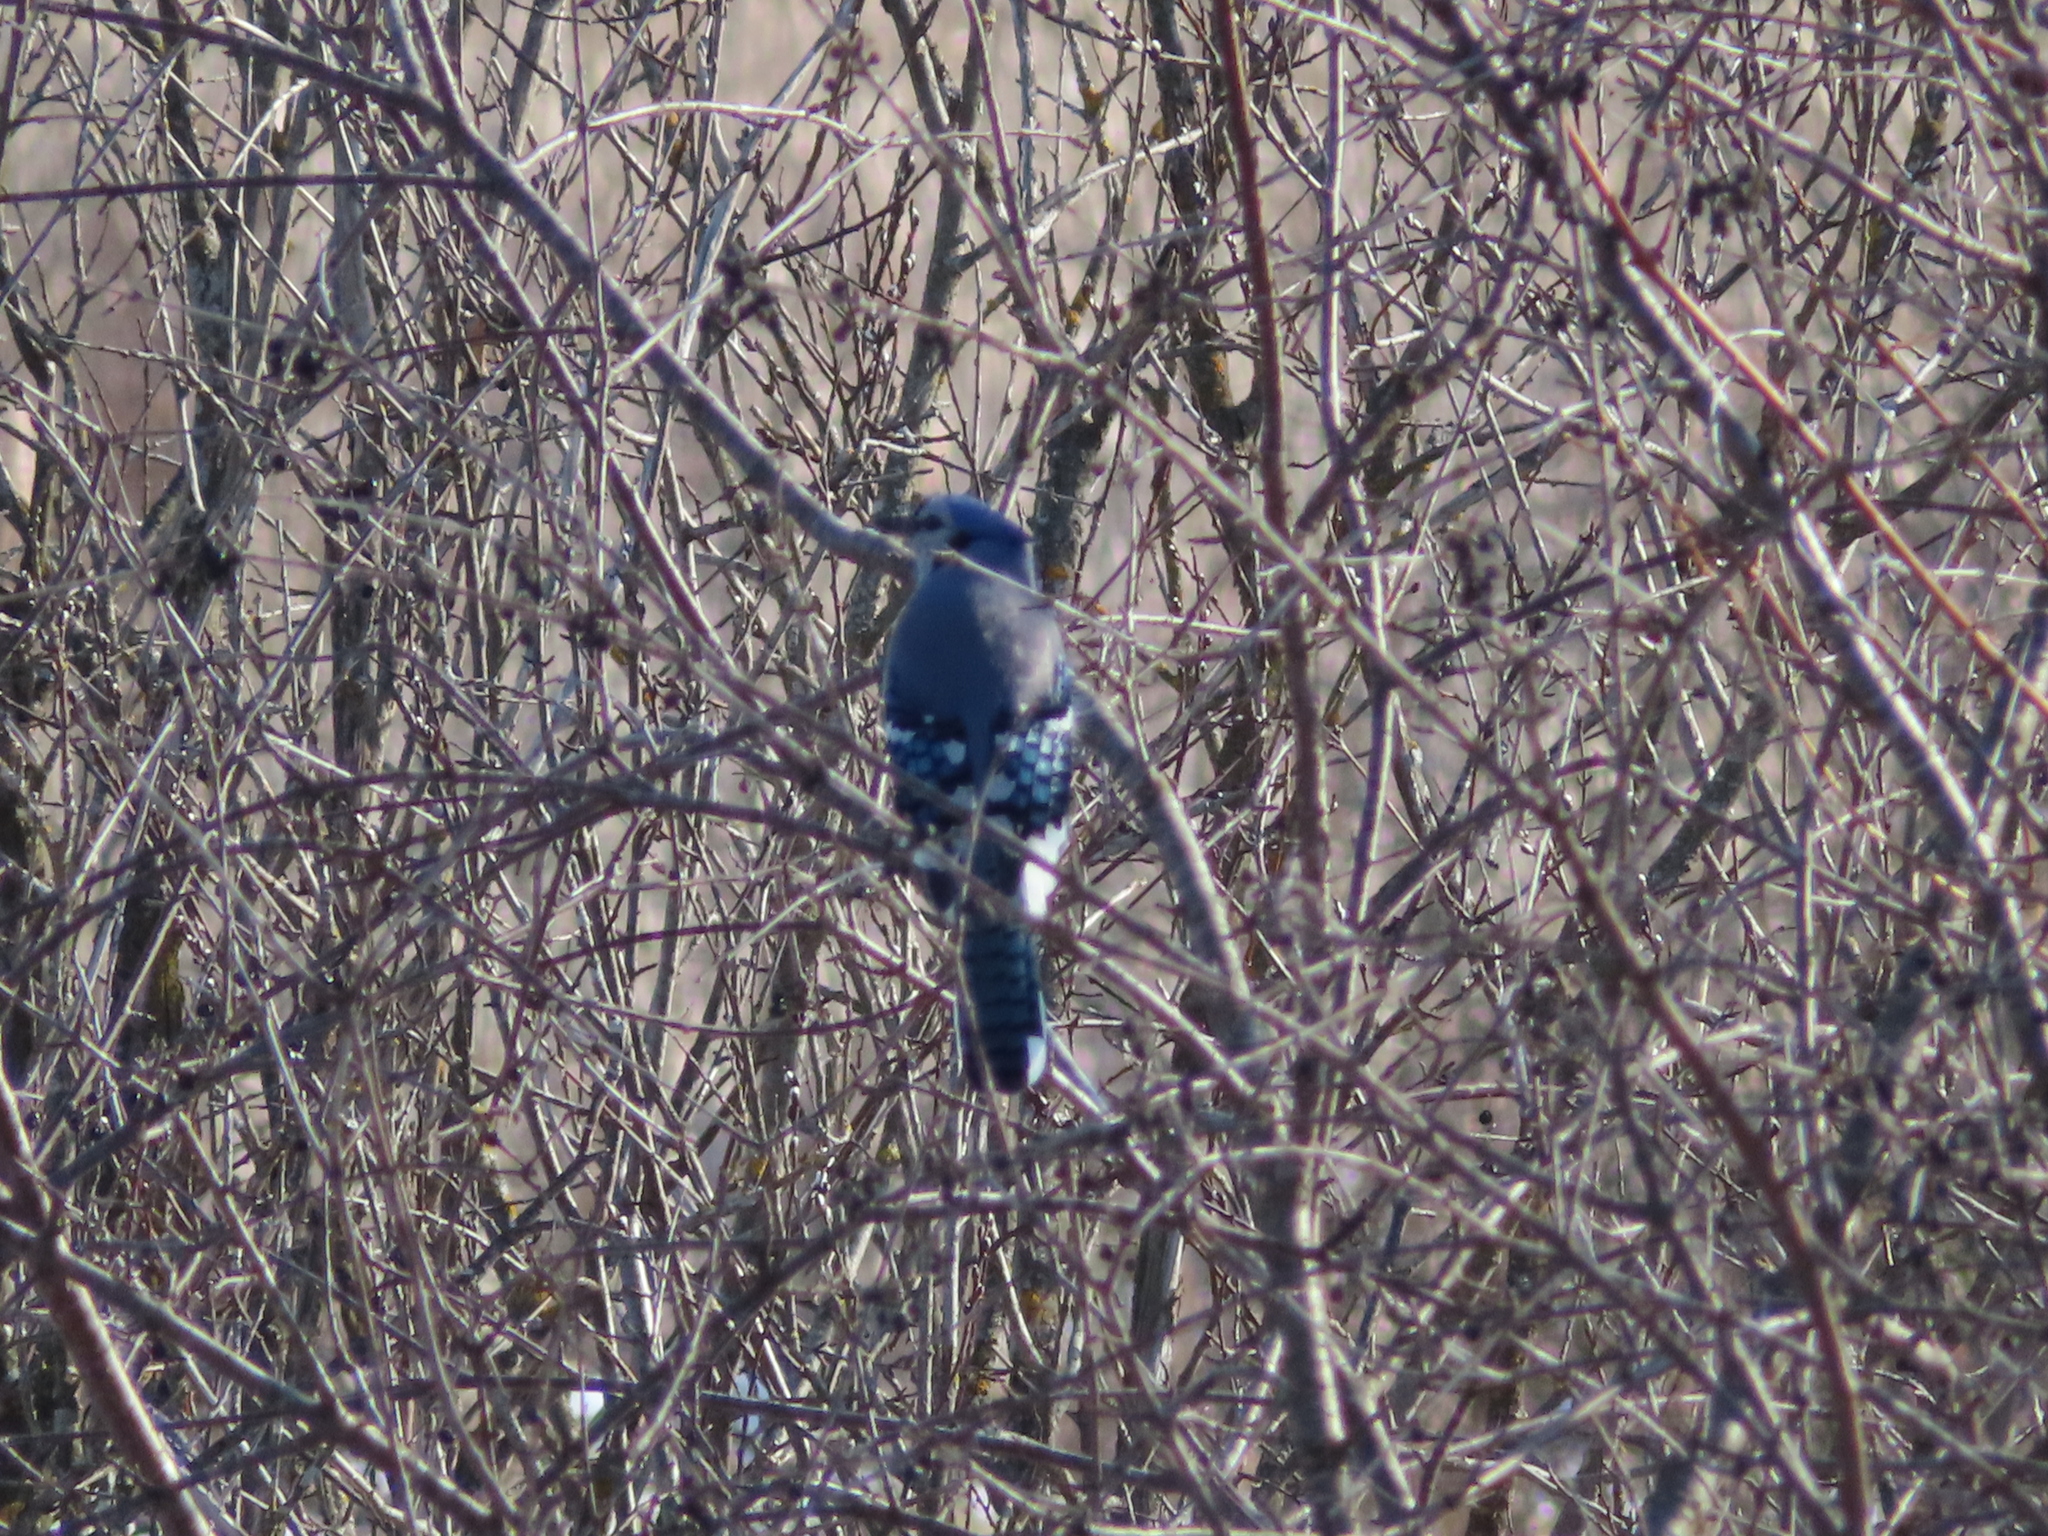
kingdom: Animalia
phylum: Chordata
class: Aves
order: Passeriformes
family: Corvidae
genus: Cyanocitta
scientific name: Cyanocitta cristata
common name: Blue jay
